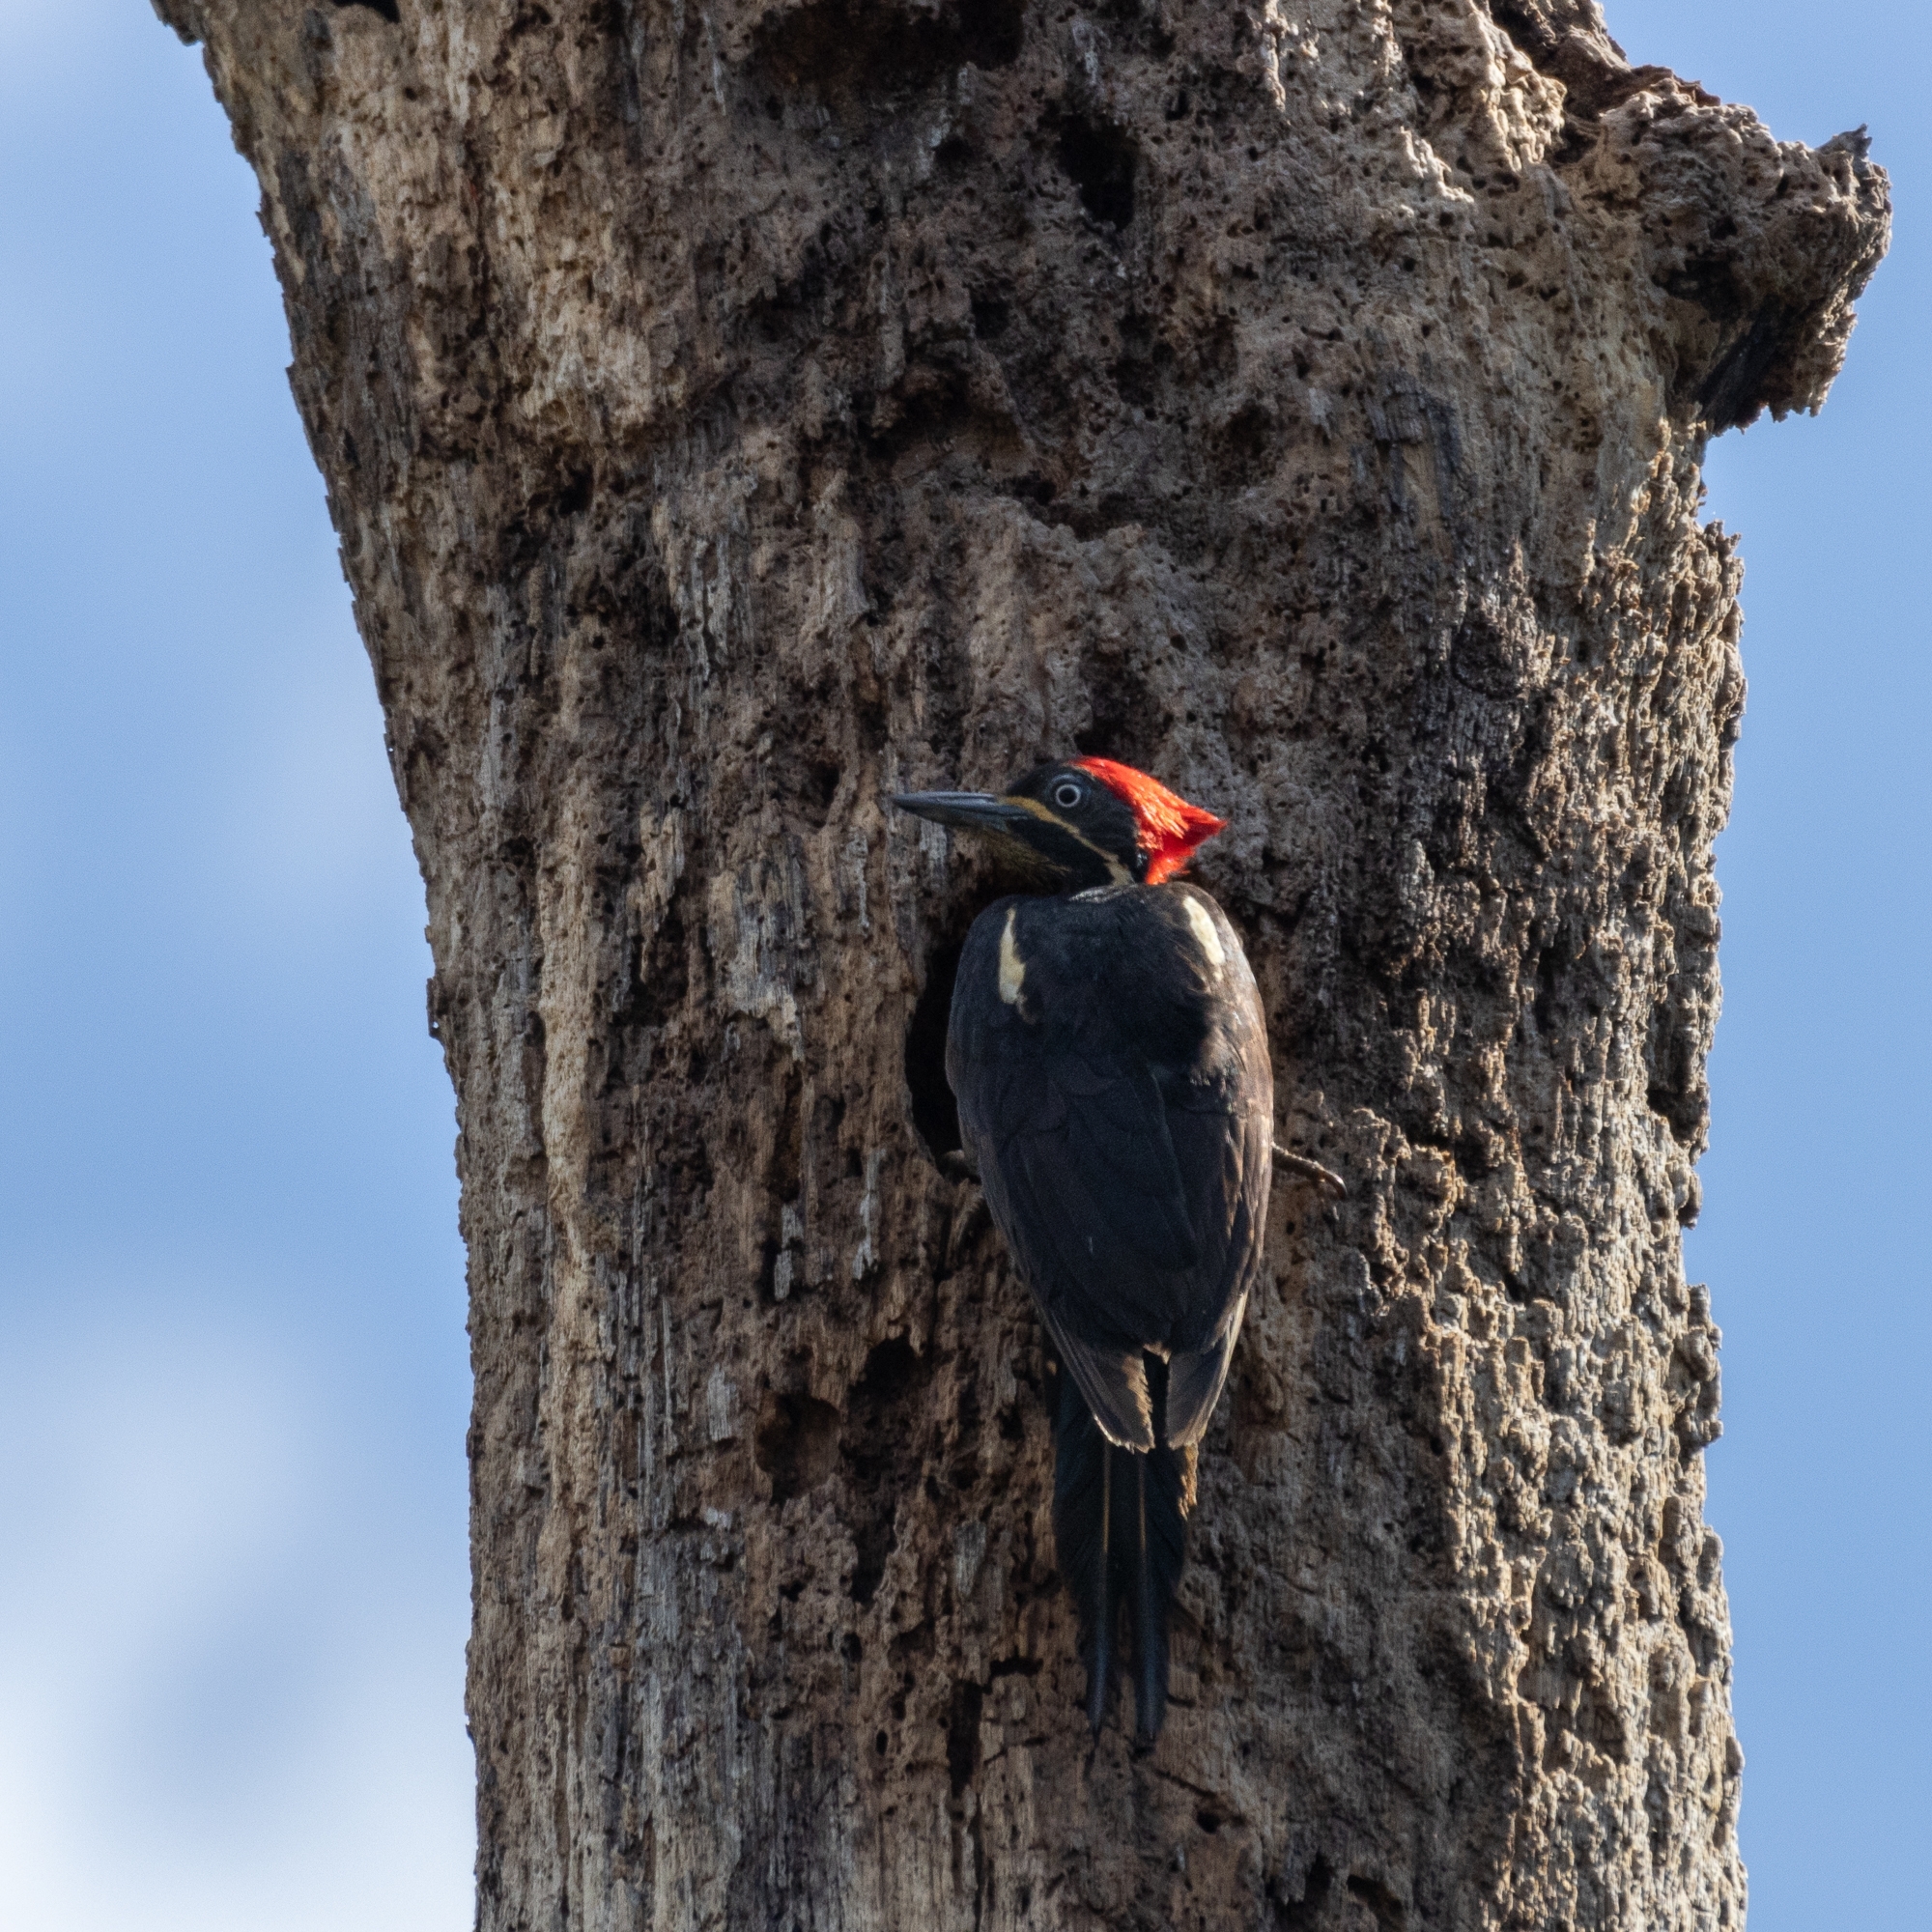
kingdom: Animalia
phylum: Chordata
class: Aves
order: Piciformes
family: Picidae
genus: Dryocopus
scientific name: Dryocopus lineatus
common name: Lineated woodpecker
